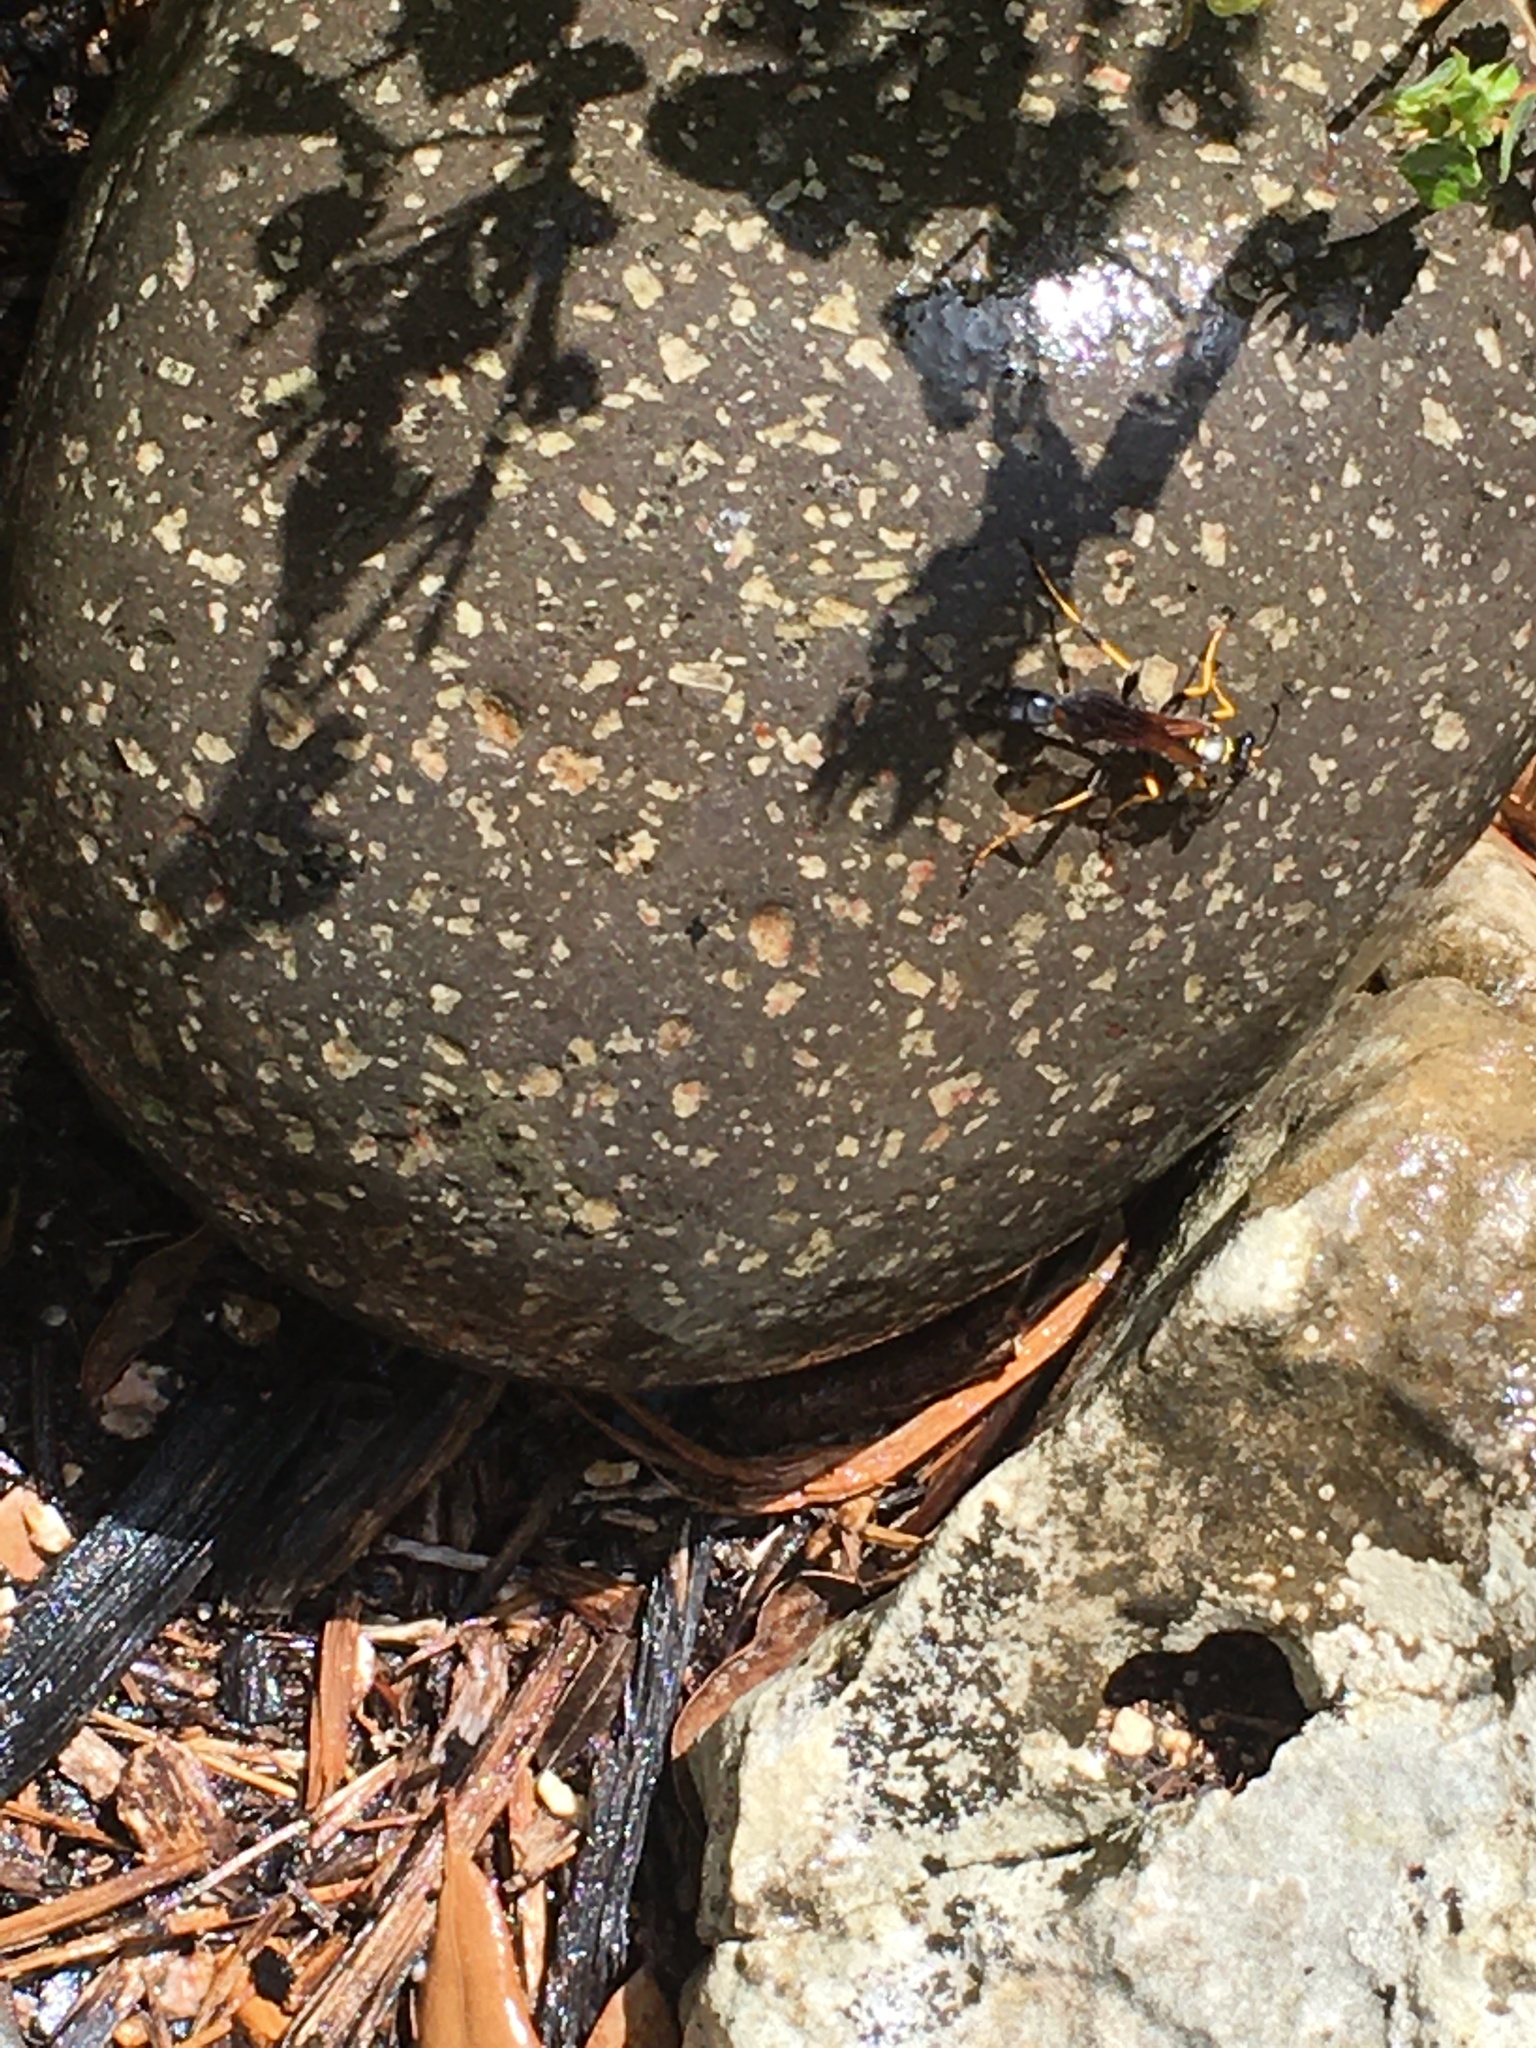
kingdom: Animalia
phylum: Arthropoda
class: Insecta
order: Hymenoptera
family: Sphecidae
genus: Sceliphron
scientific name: Sceliphron caementarium
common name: Mud dauber
